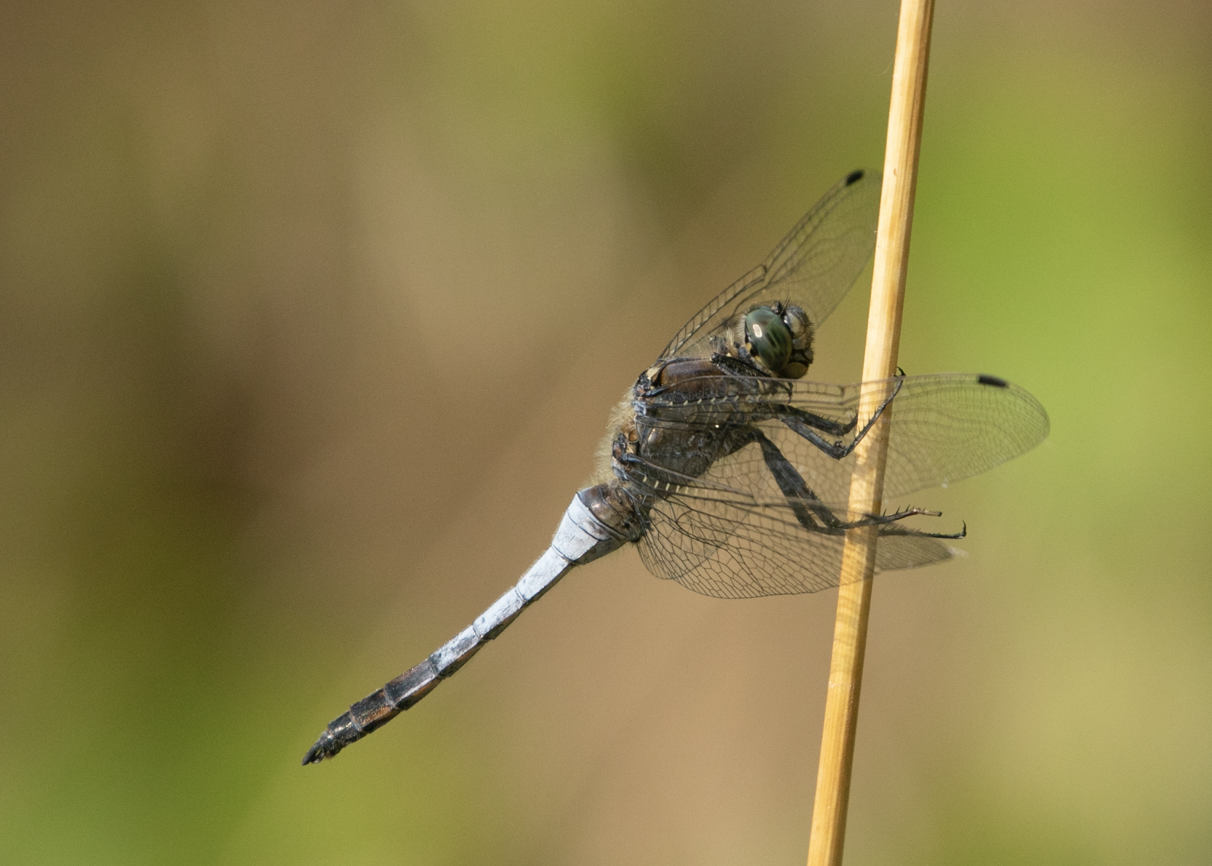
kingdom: Animalia
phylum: Arthropoda
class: Insecta
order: Odonata
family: Libellulidae
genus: Orthetrum
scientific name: Orthetrum cancellatum
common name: Black-tailed skimmer
